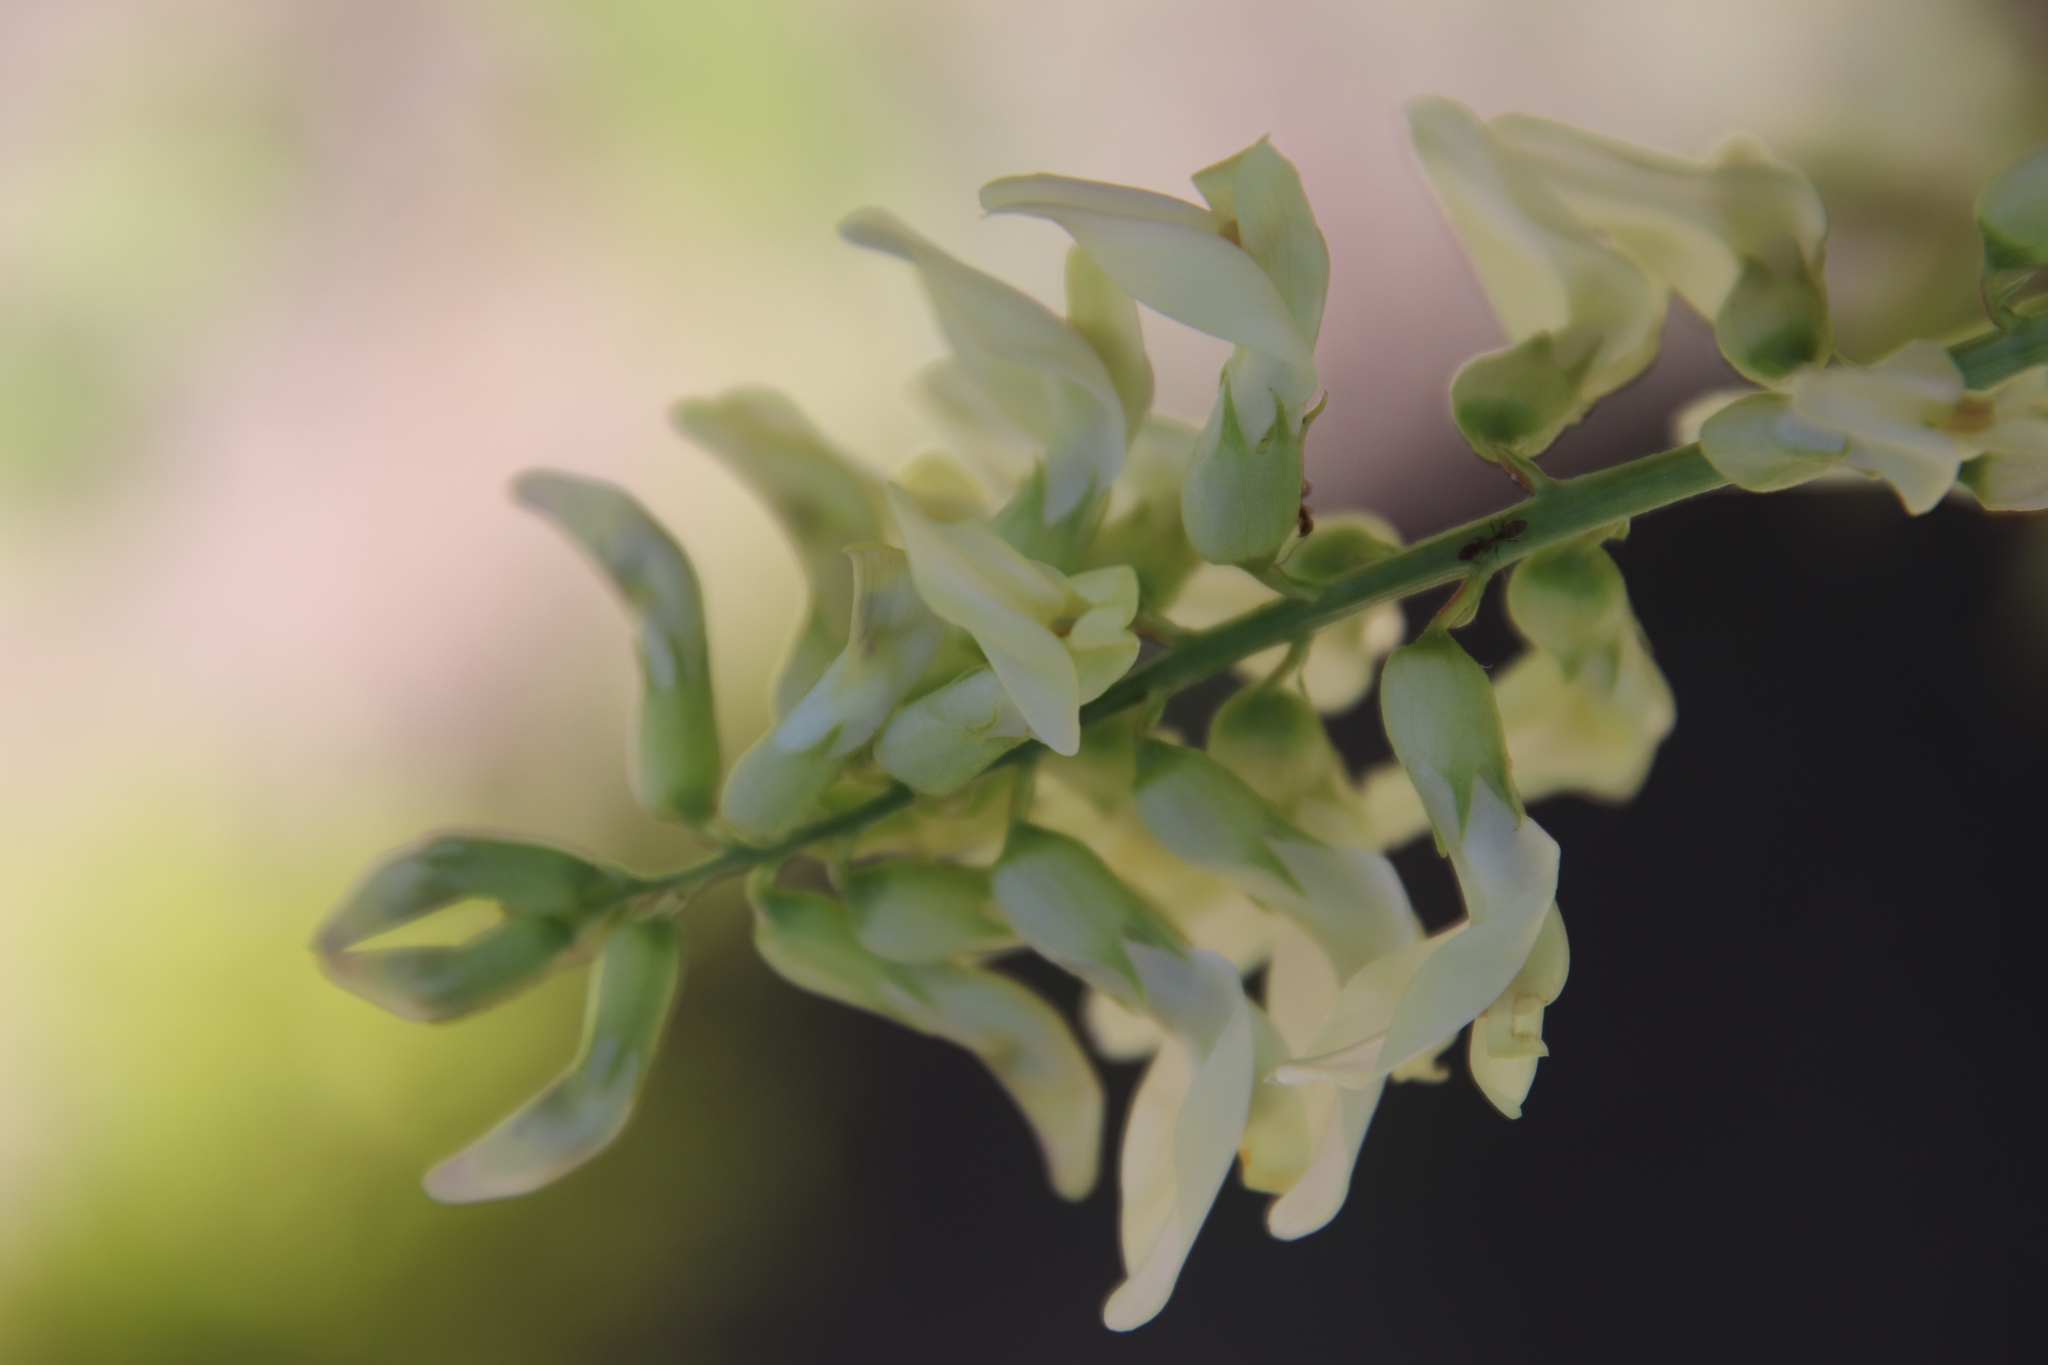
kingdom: Plantae
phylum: Tracheophyta
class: Magnoliopsida
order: Fabales
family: Fabaceae
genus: Astragalus
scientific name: Astragalus trichopodus
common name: Santa barbara milk-vetch
